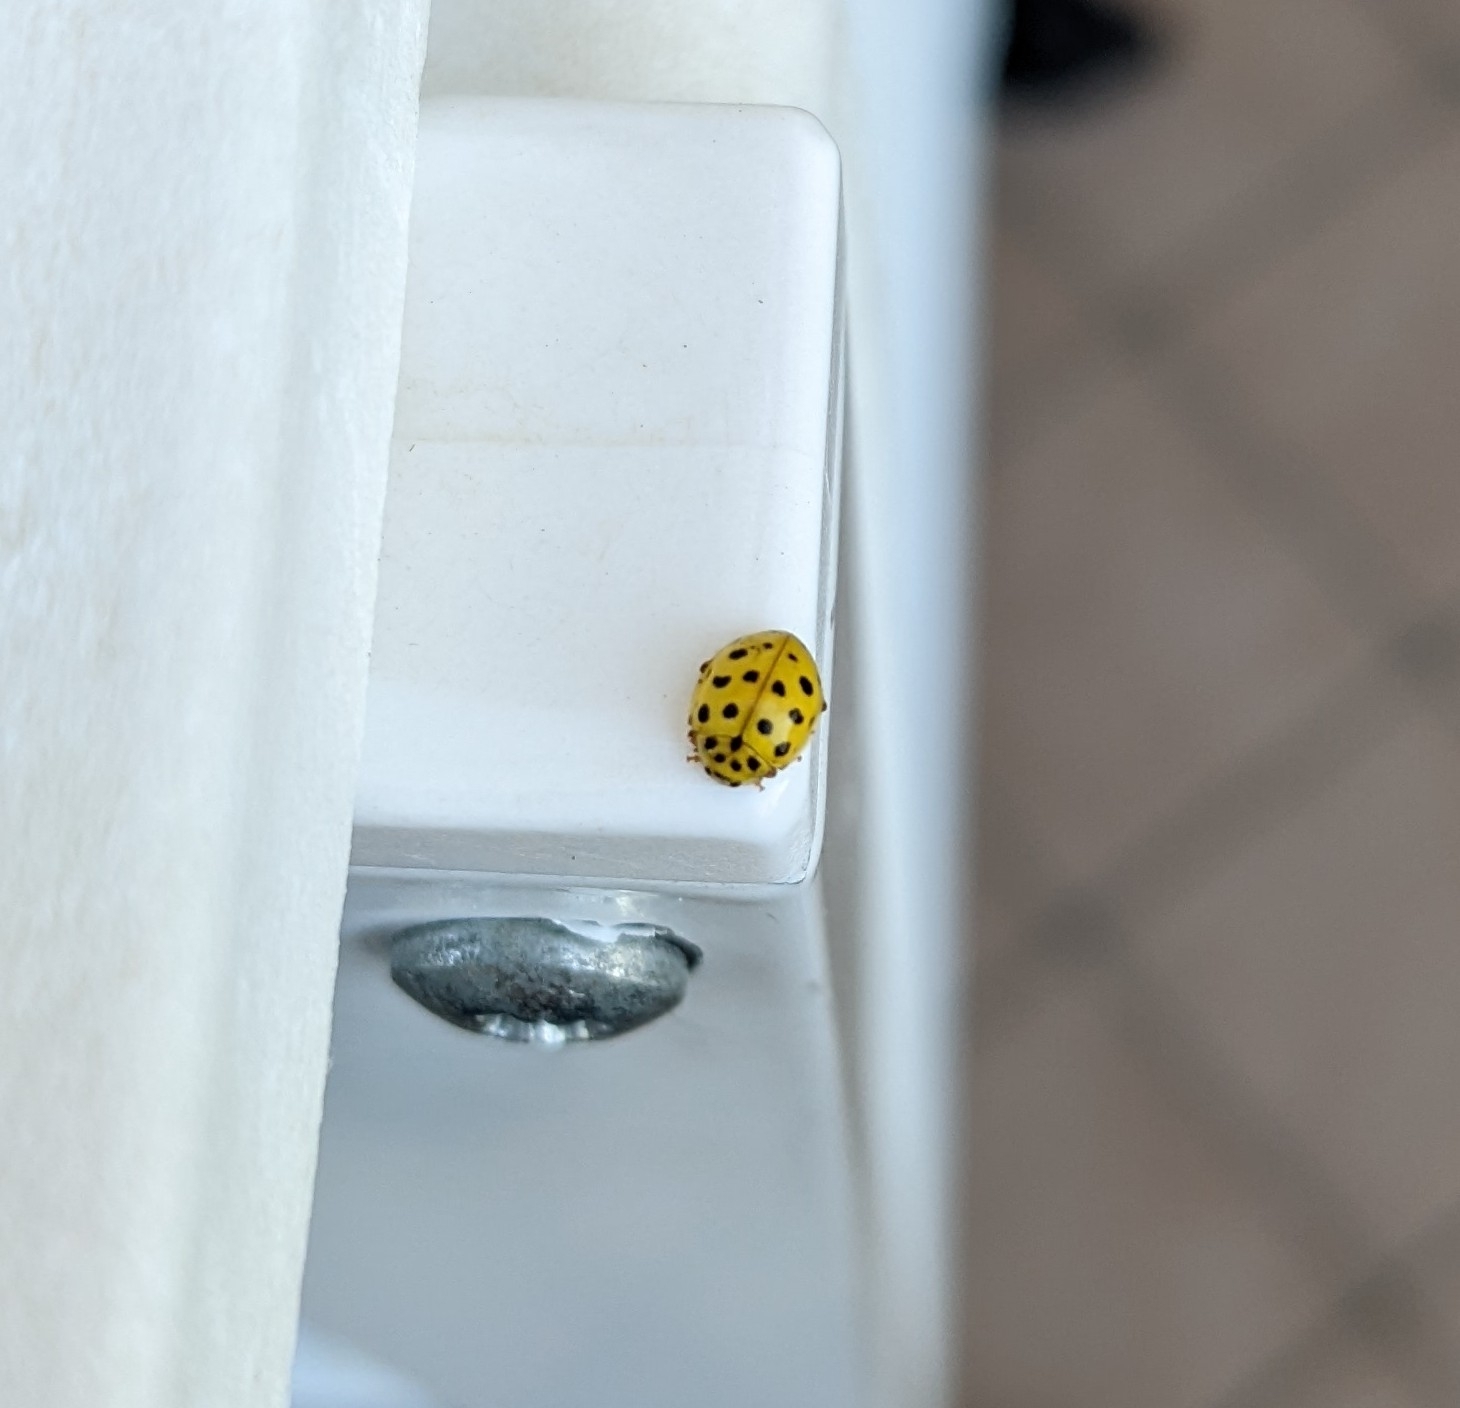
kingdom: Animalia
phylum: Arthropoda
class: Insecta
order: Coleoptera
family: Coccinellidae
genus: Psyllobora
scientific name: Psyllobora vigintiduopunctata
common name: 22-spot ladybird
